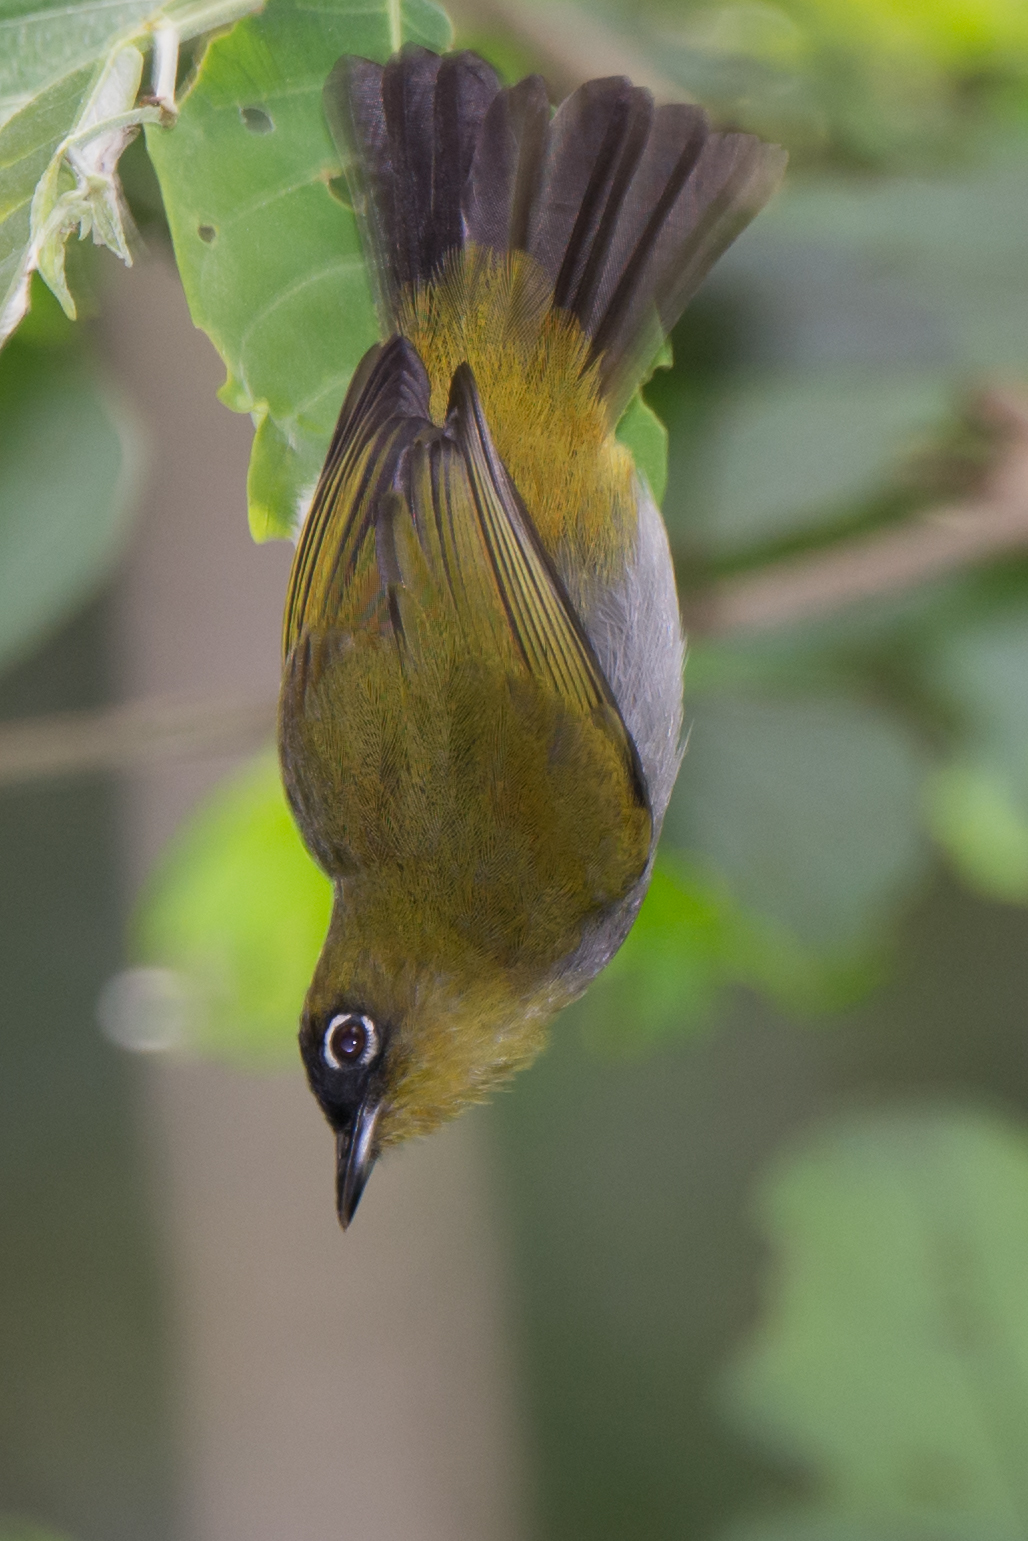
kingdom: Animalia
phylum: Chordata
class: Aves
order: Passeriformes
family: Zosteropidae
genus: Zosterops
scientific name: Zosterops atrifrons
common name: Black-crowned white-eye
